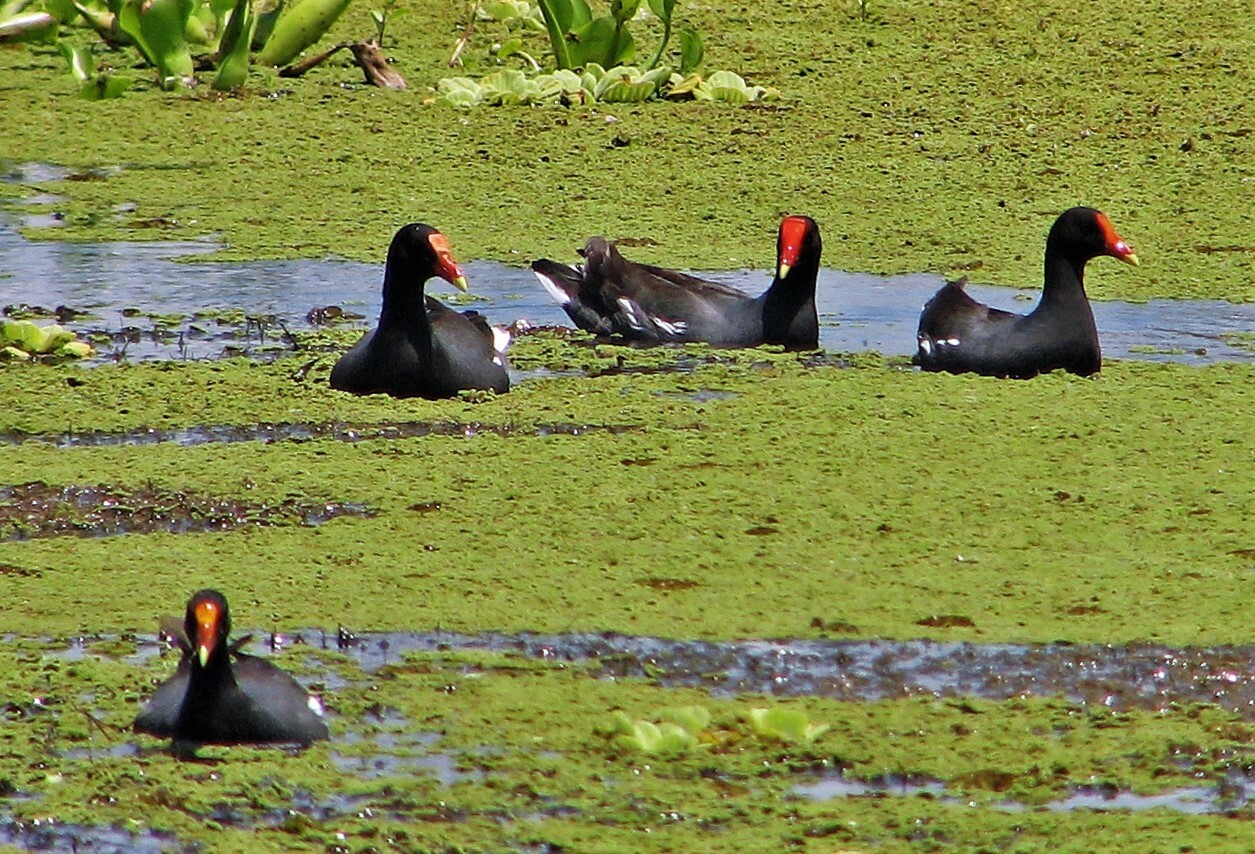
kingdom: Animalia
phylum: Chordata
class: Aves
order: Gruiformes
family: Rallidae
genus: Gallinula
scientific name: Gallinula chloropus
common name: Common moorhen
